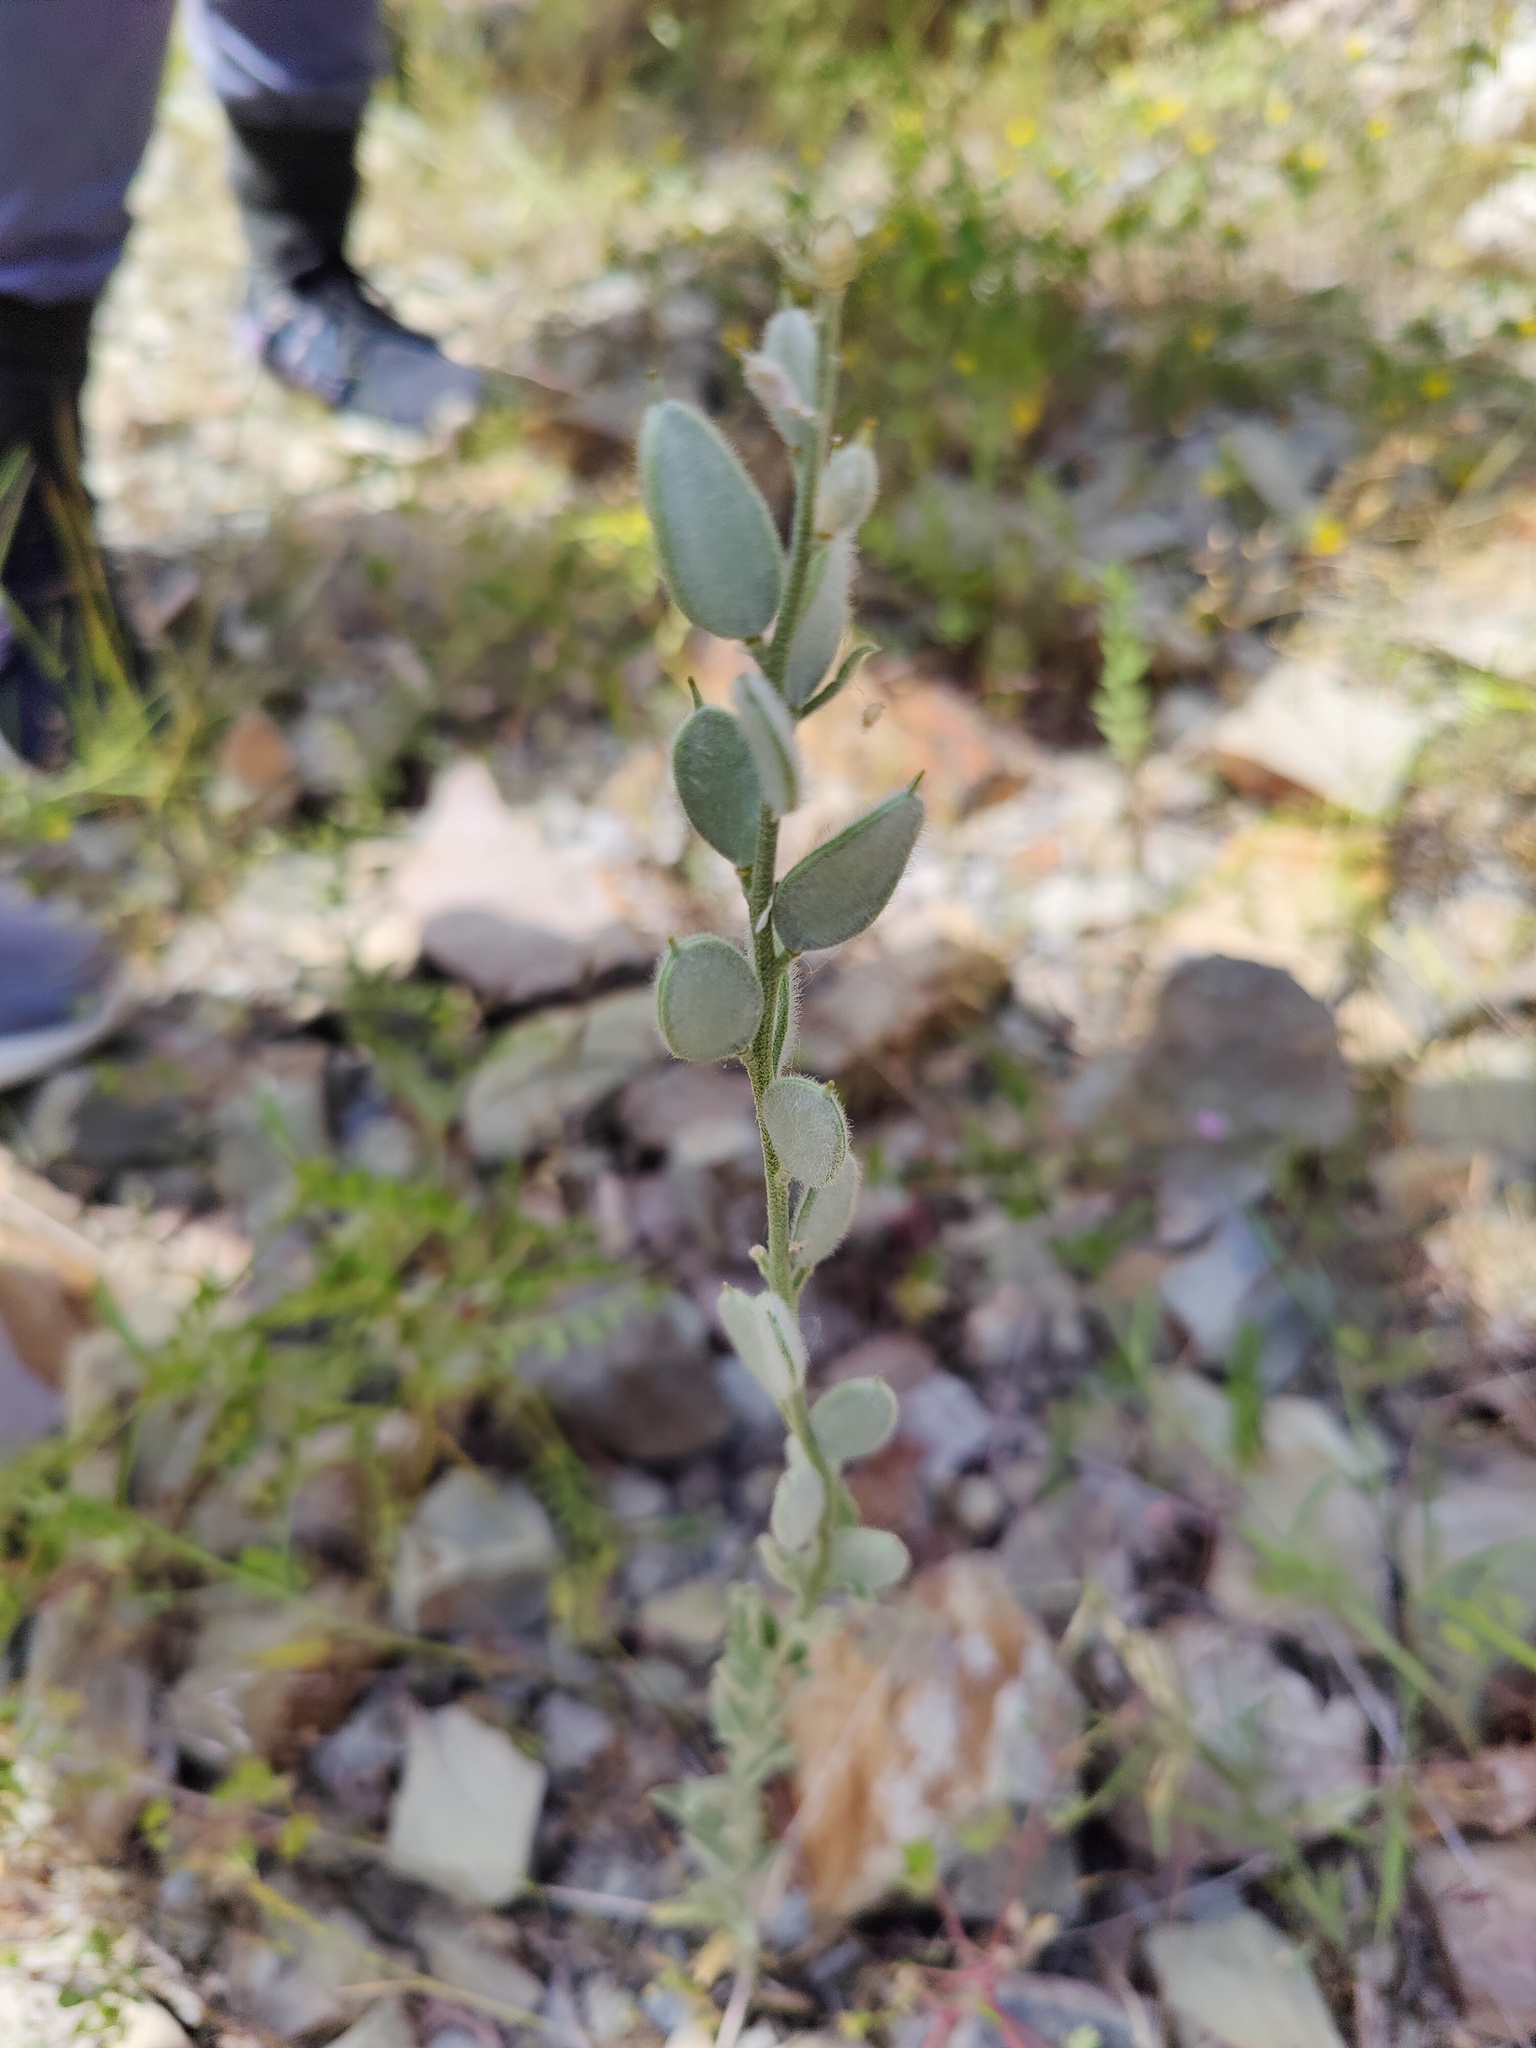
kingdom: Plantae
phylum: Tracheophyta
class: Magnoliopsida
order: Brassicales
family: Brassicaceae
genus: Fibigia
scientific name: Fibigia clypeata
